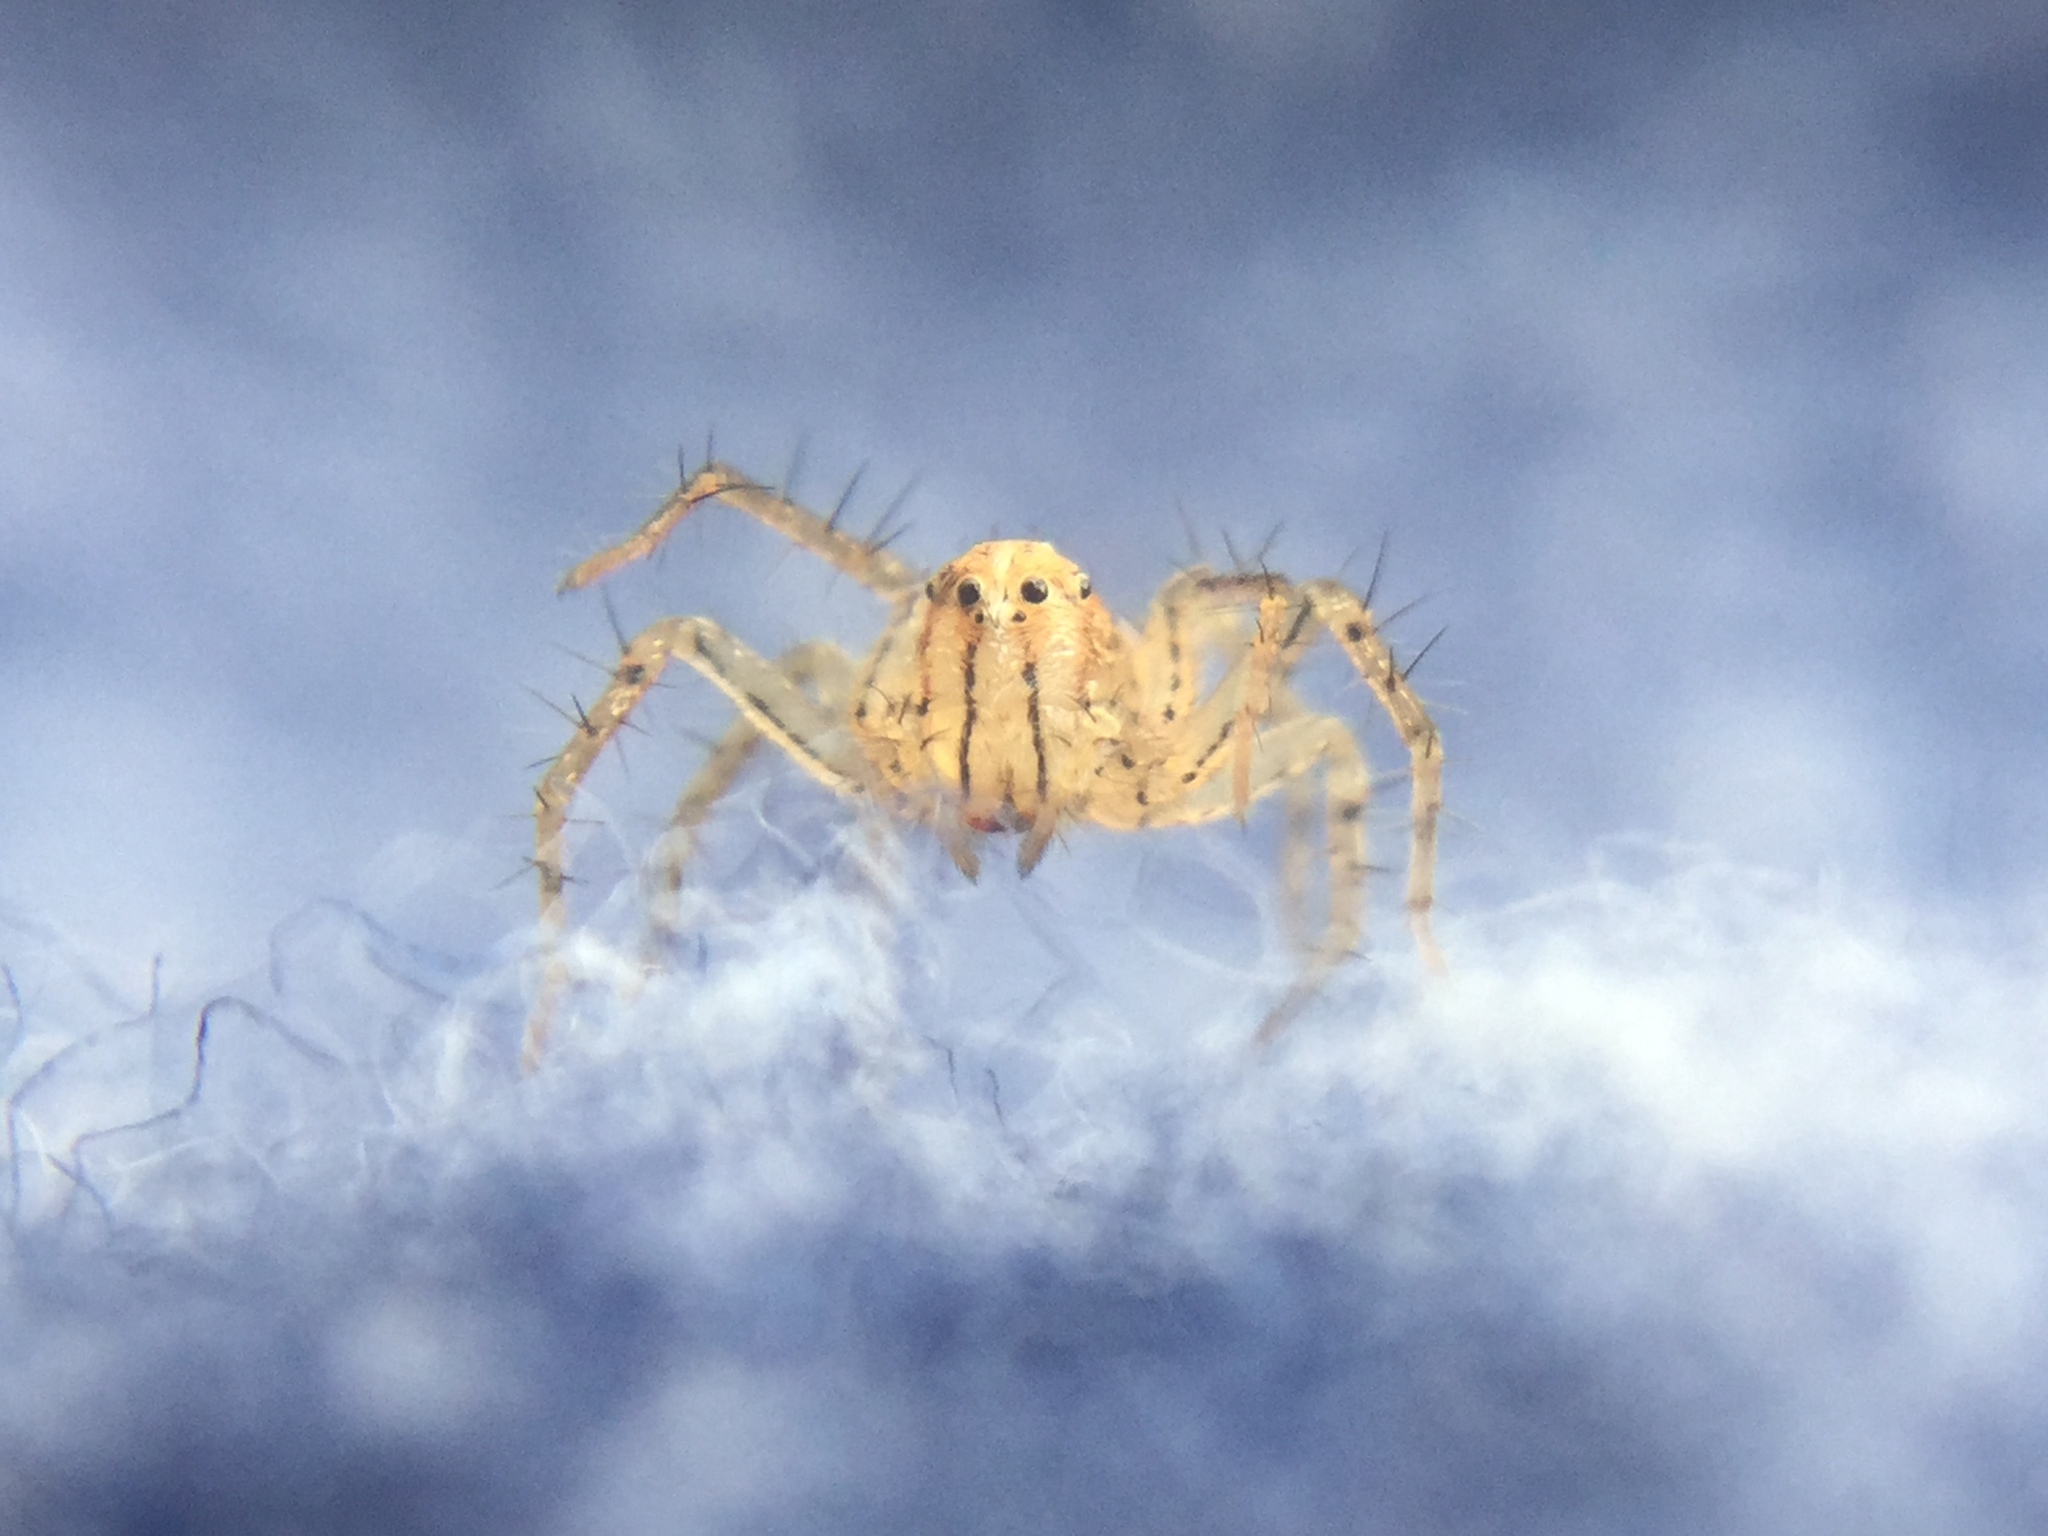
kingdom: Animalia
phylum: Arthropoda
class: Arachnida
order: Araneae
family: Oxyopidae
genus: Oxyopes
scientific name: Oxyopes aglossus
